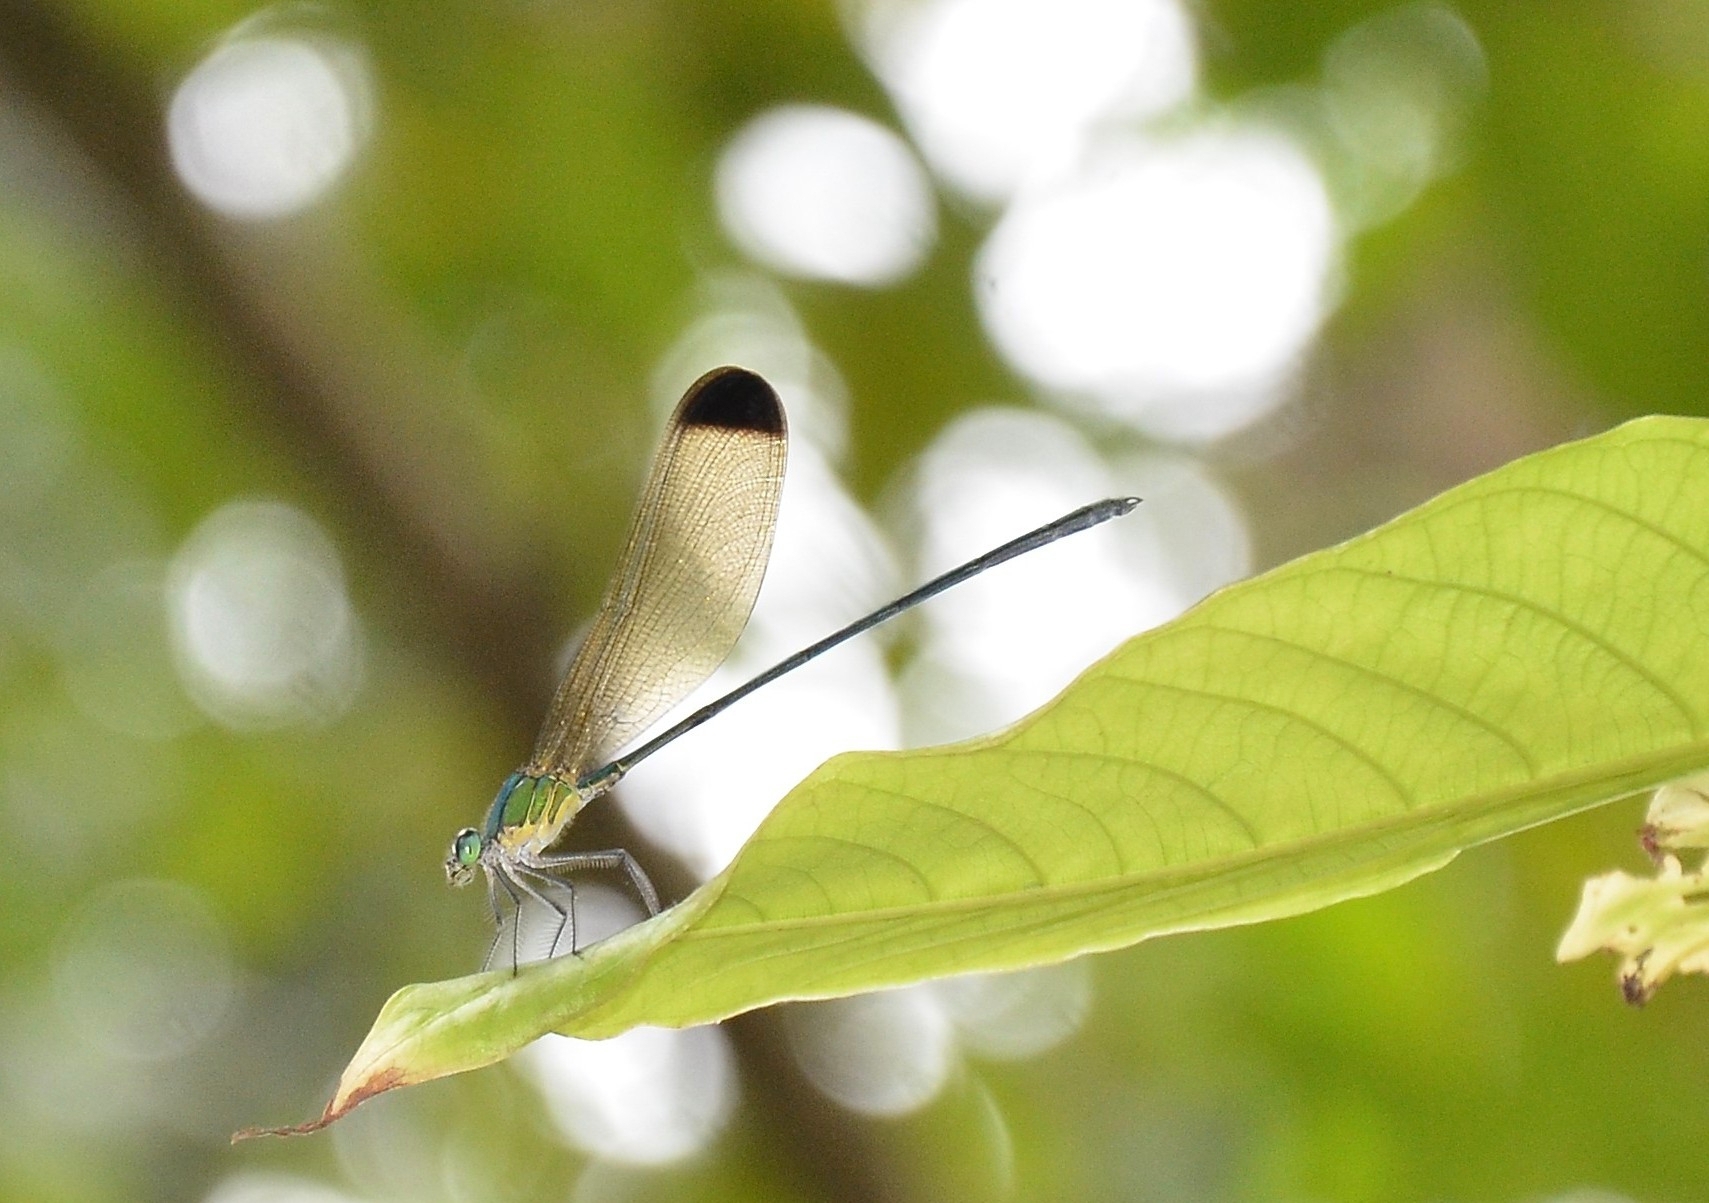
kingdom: Animalia
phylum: Arthropoda
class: Insecta
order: Odonata
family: Calopterygidae
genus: Vestalis
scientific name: Vestalis apicalis
